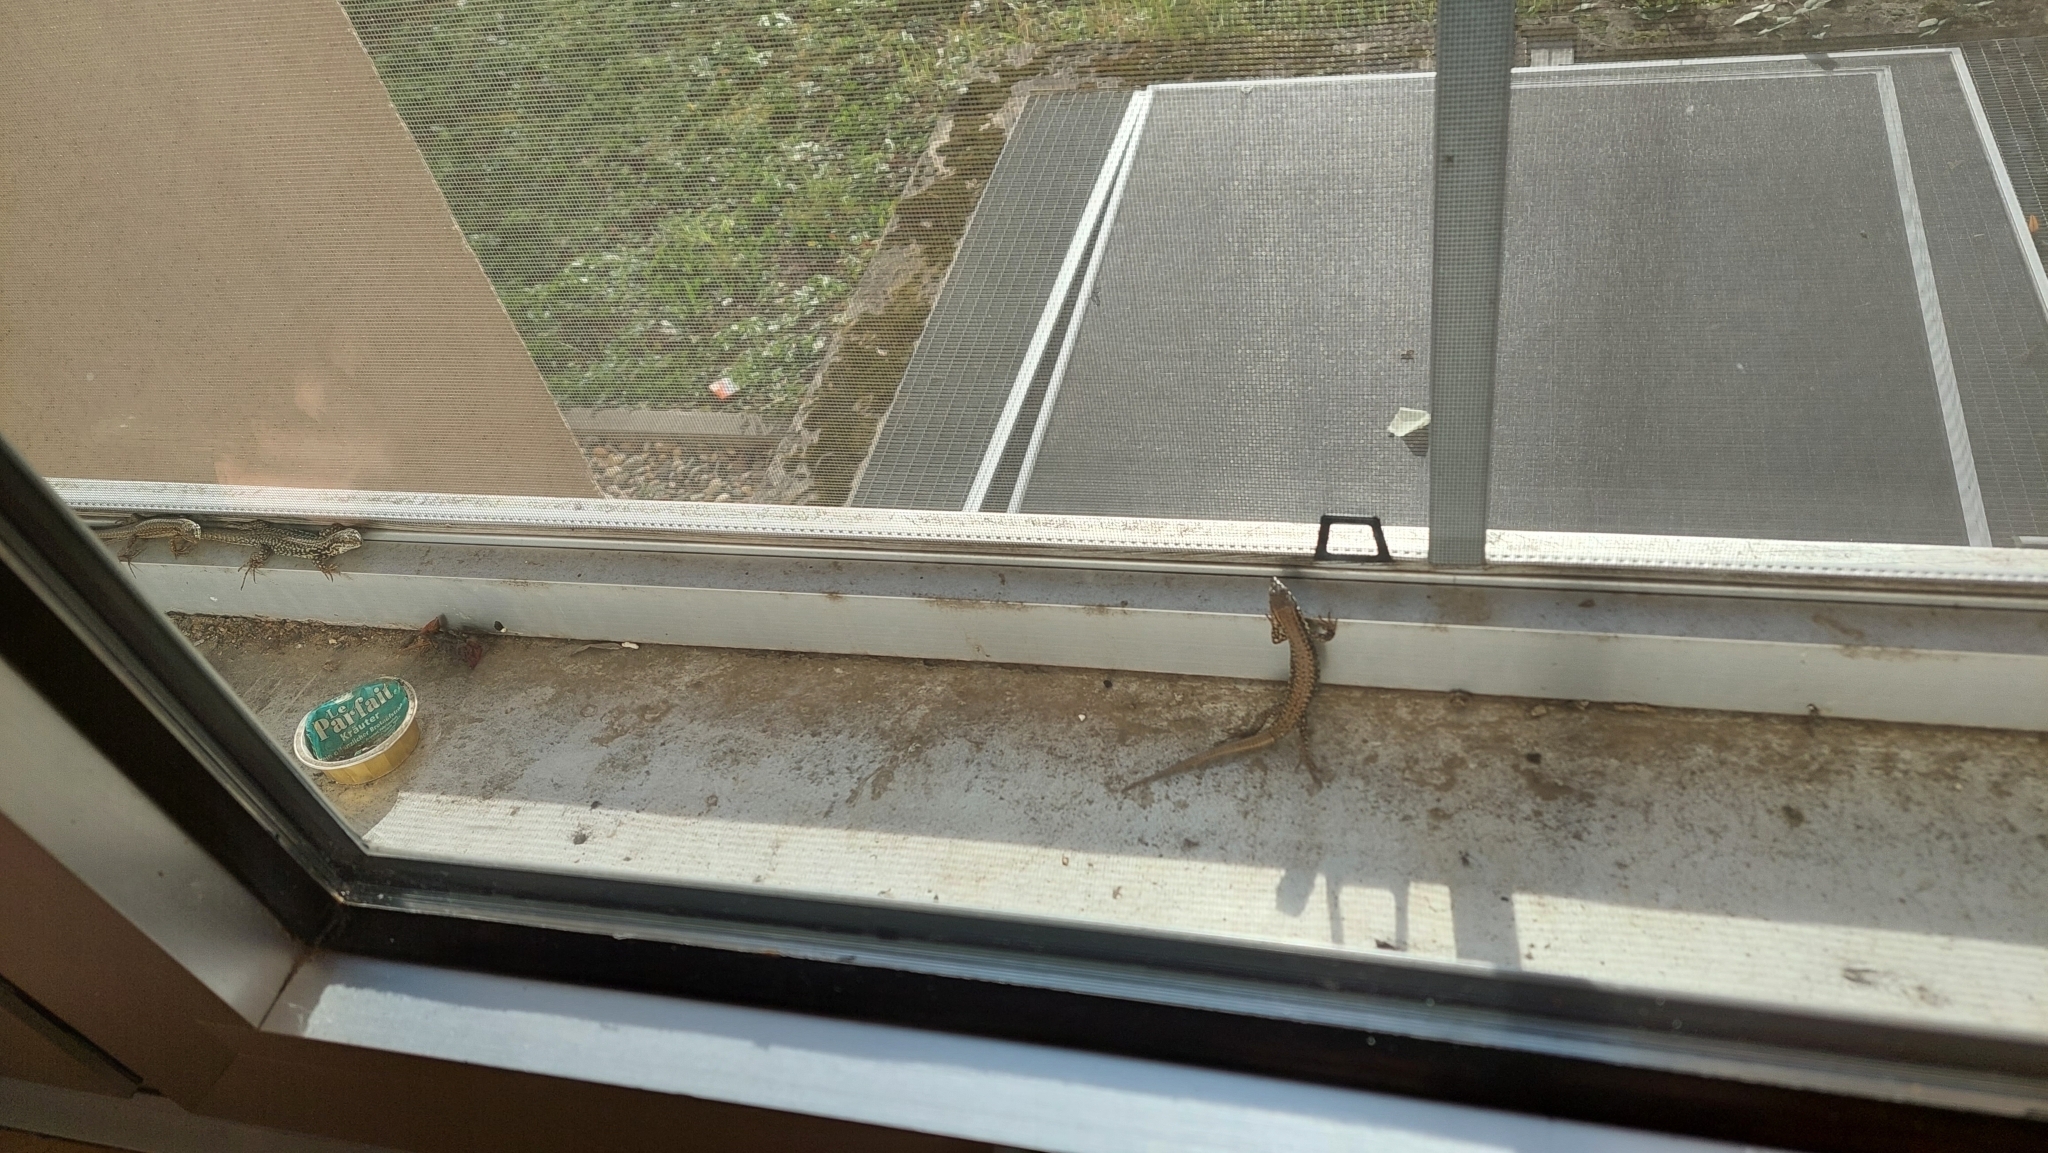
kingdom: Animalia
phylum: Chordata
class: Squamata
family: Lacertidae
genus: Podarcis
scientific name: Podarcis muralis
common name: Common wall lizard
